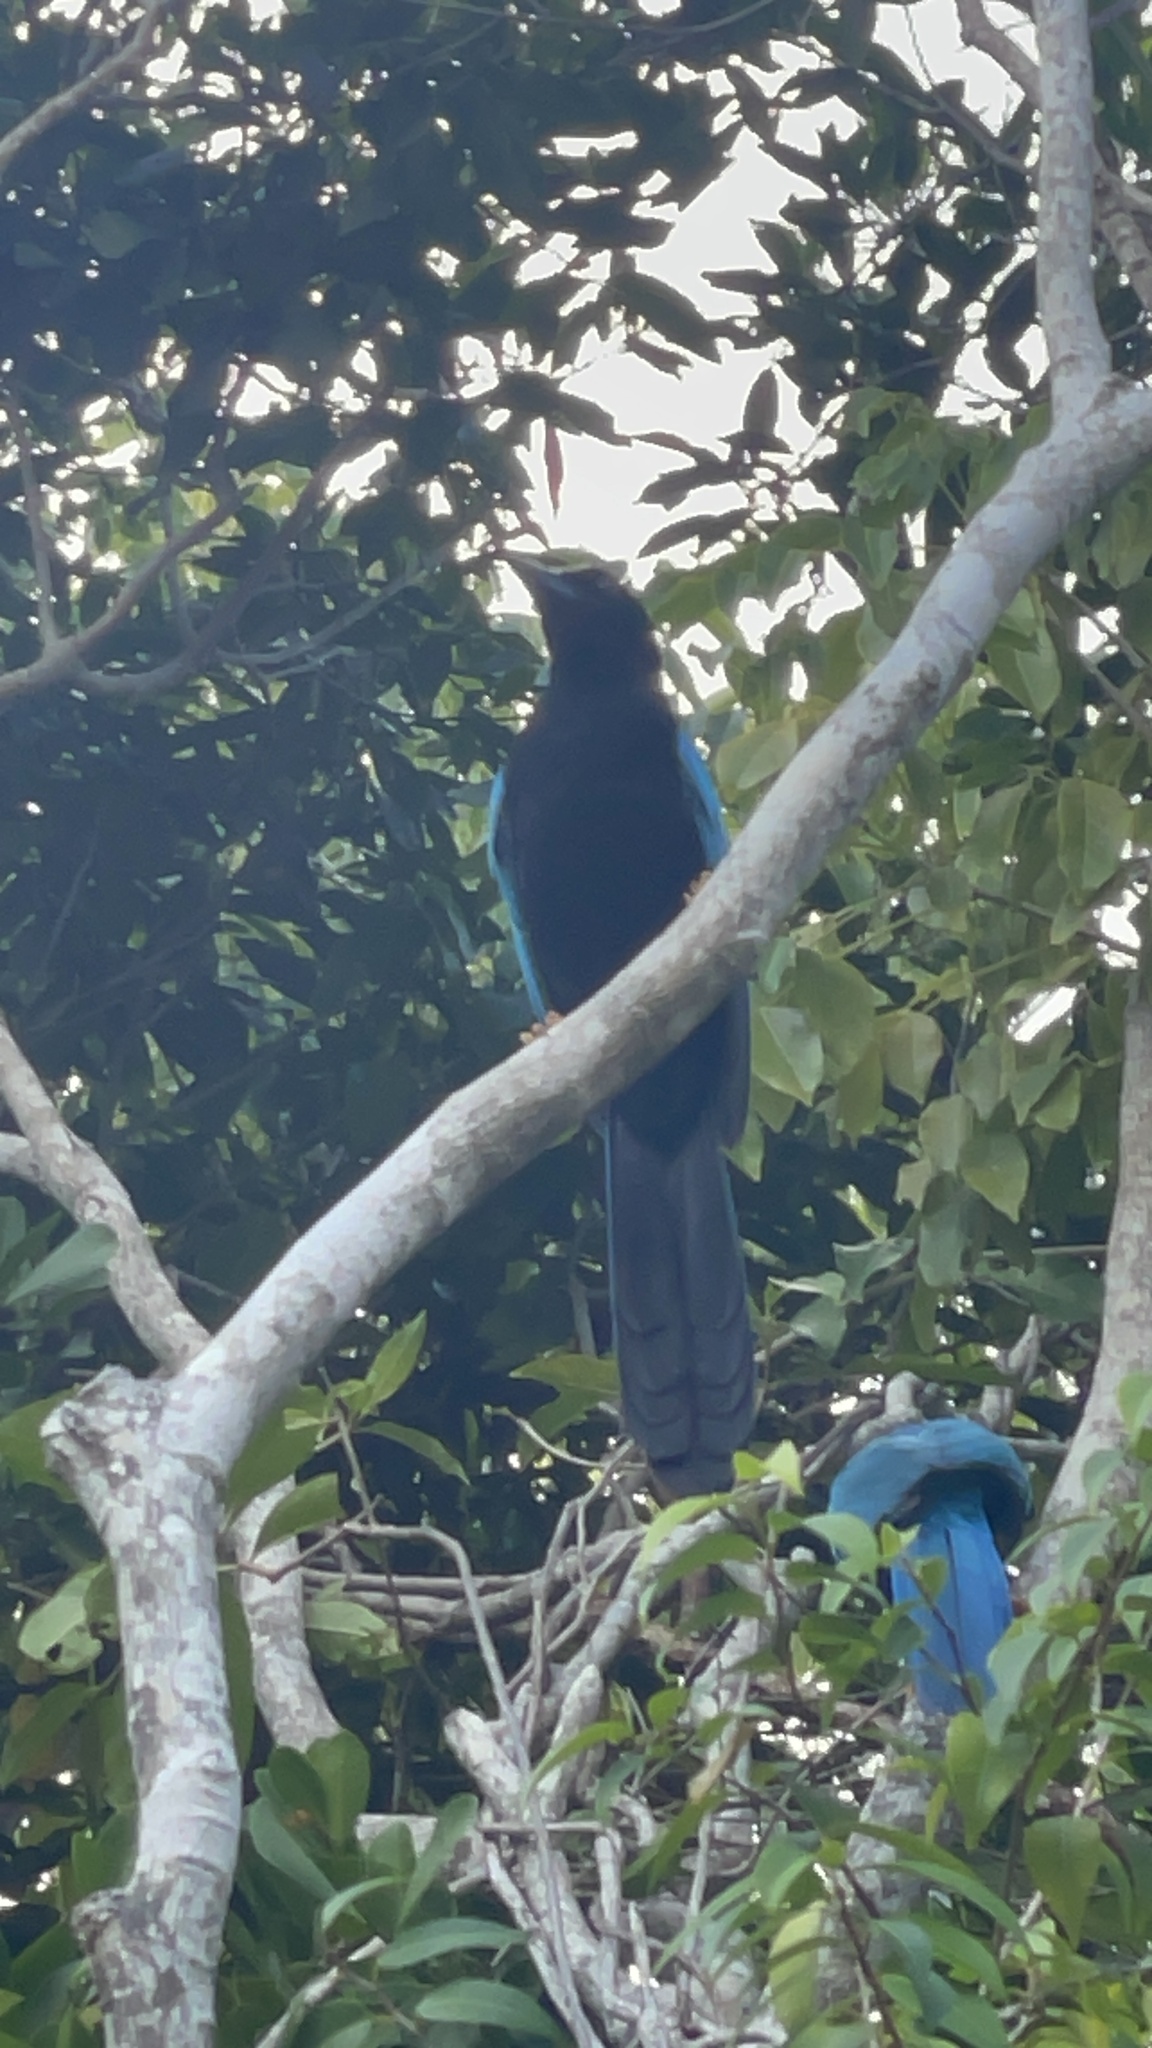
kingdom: Animalia
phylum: Chordata
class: Aves
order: Passeriformes
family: Corvidae
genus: Cyanocorax
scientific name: Cyanocorax yucatanicus
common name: Yucatan jay
